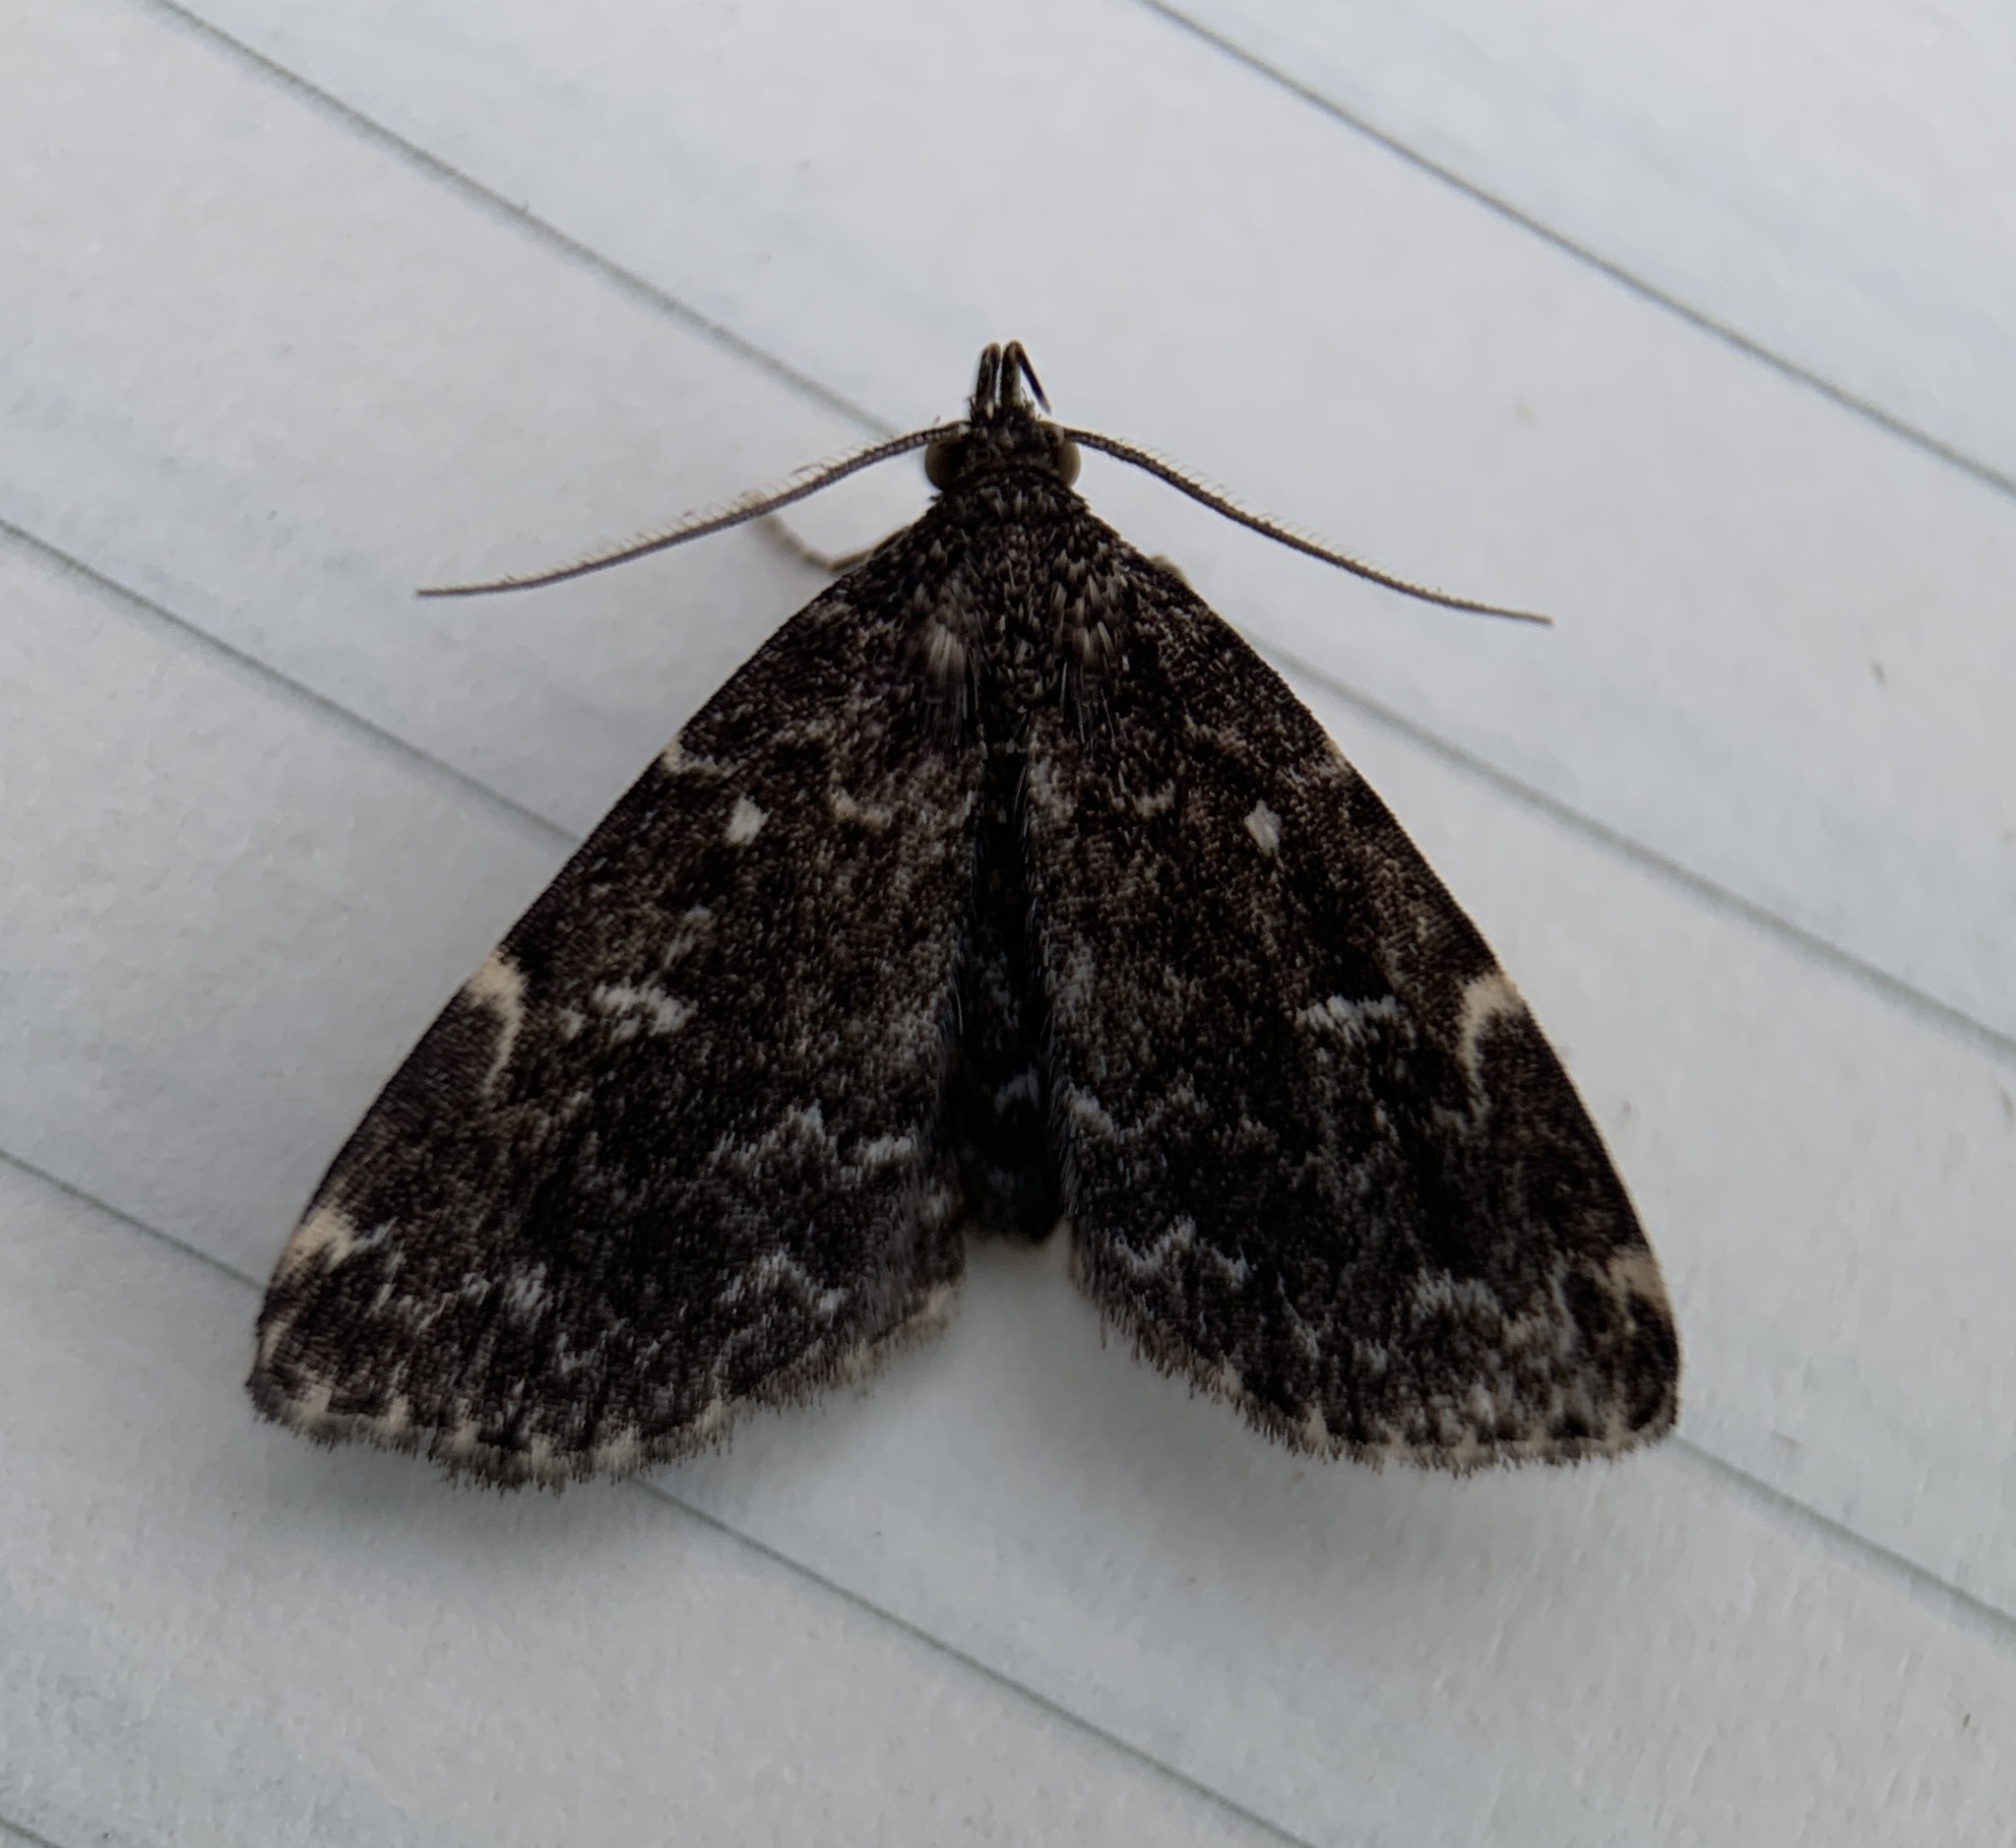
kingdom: Animalia
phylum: Arthropoda
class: Insecta
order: Lepidoptera
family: Erebidae
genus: Idia
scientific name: Idia scobialis
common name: Smoky idia moth
